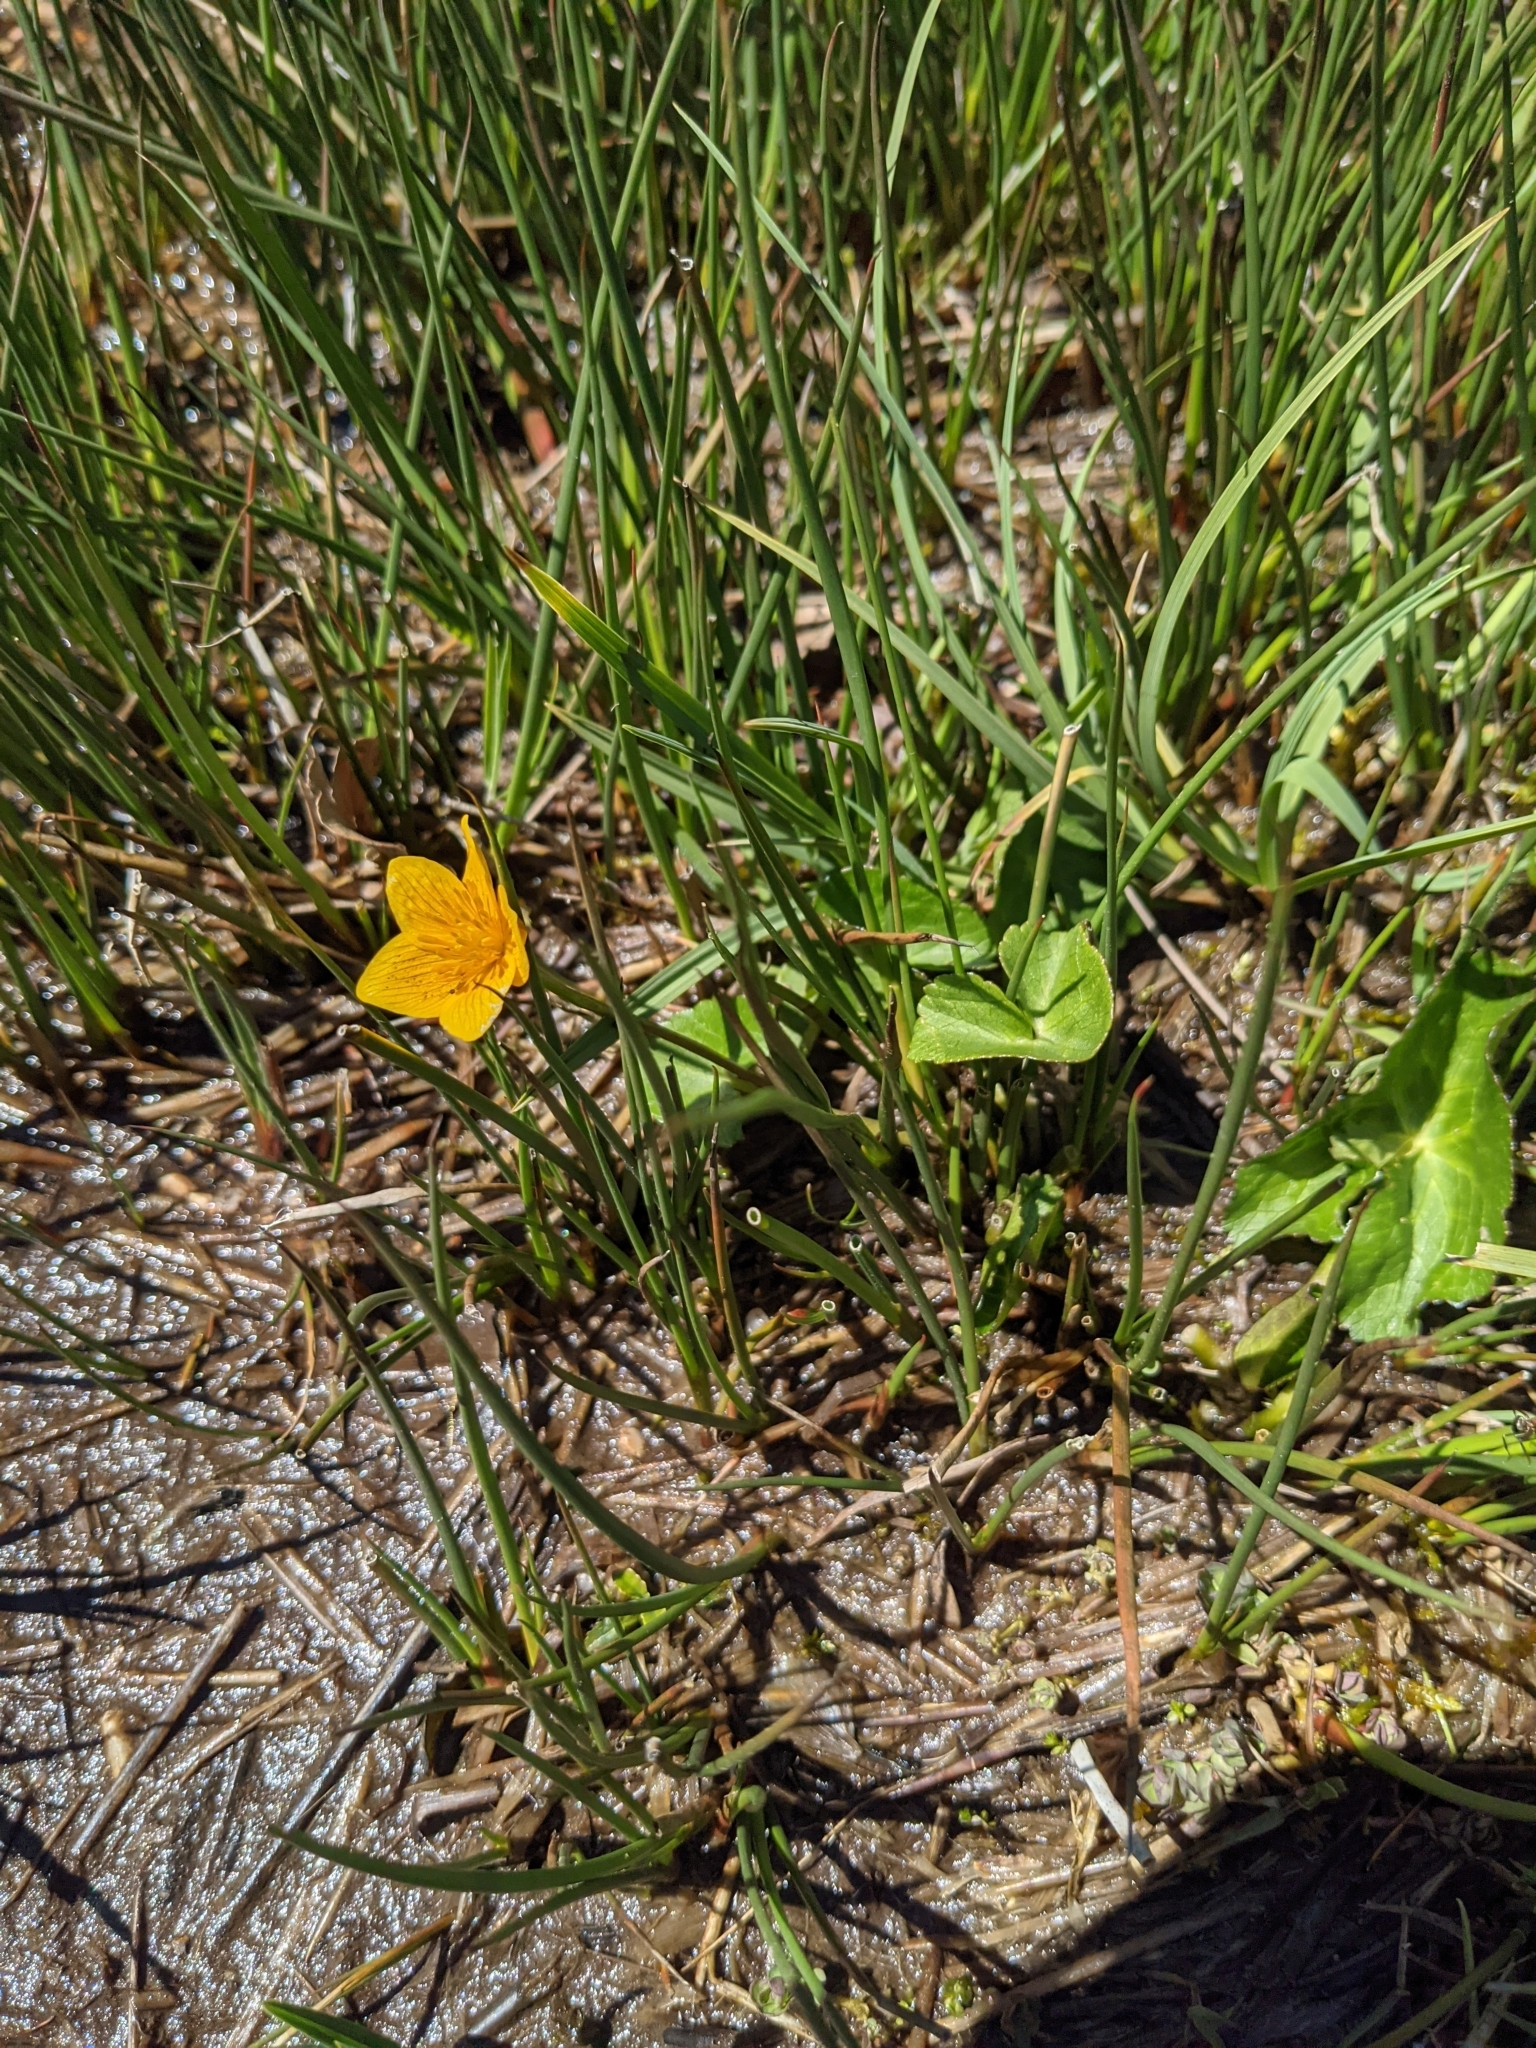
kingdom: Plantae
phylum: Tracheophyta
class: Magnoliopsida
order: Ranunculales
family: Ranunculaceae
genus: Caltha
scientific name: Caltha palustris
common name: Marsh marigold
